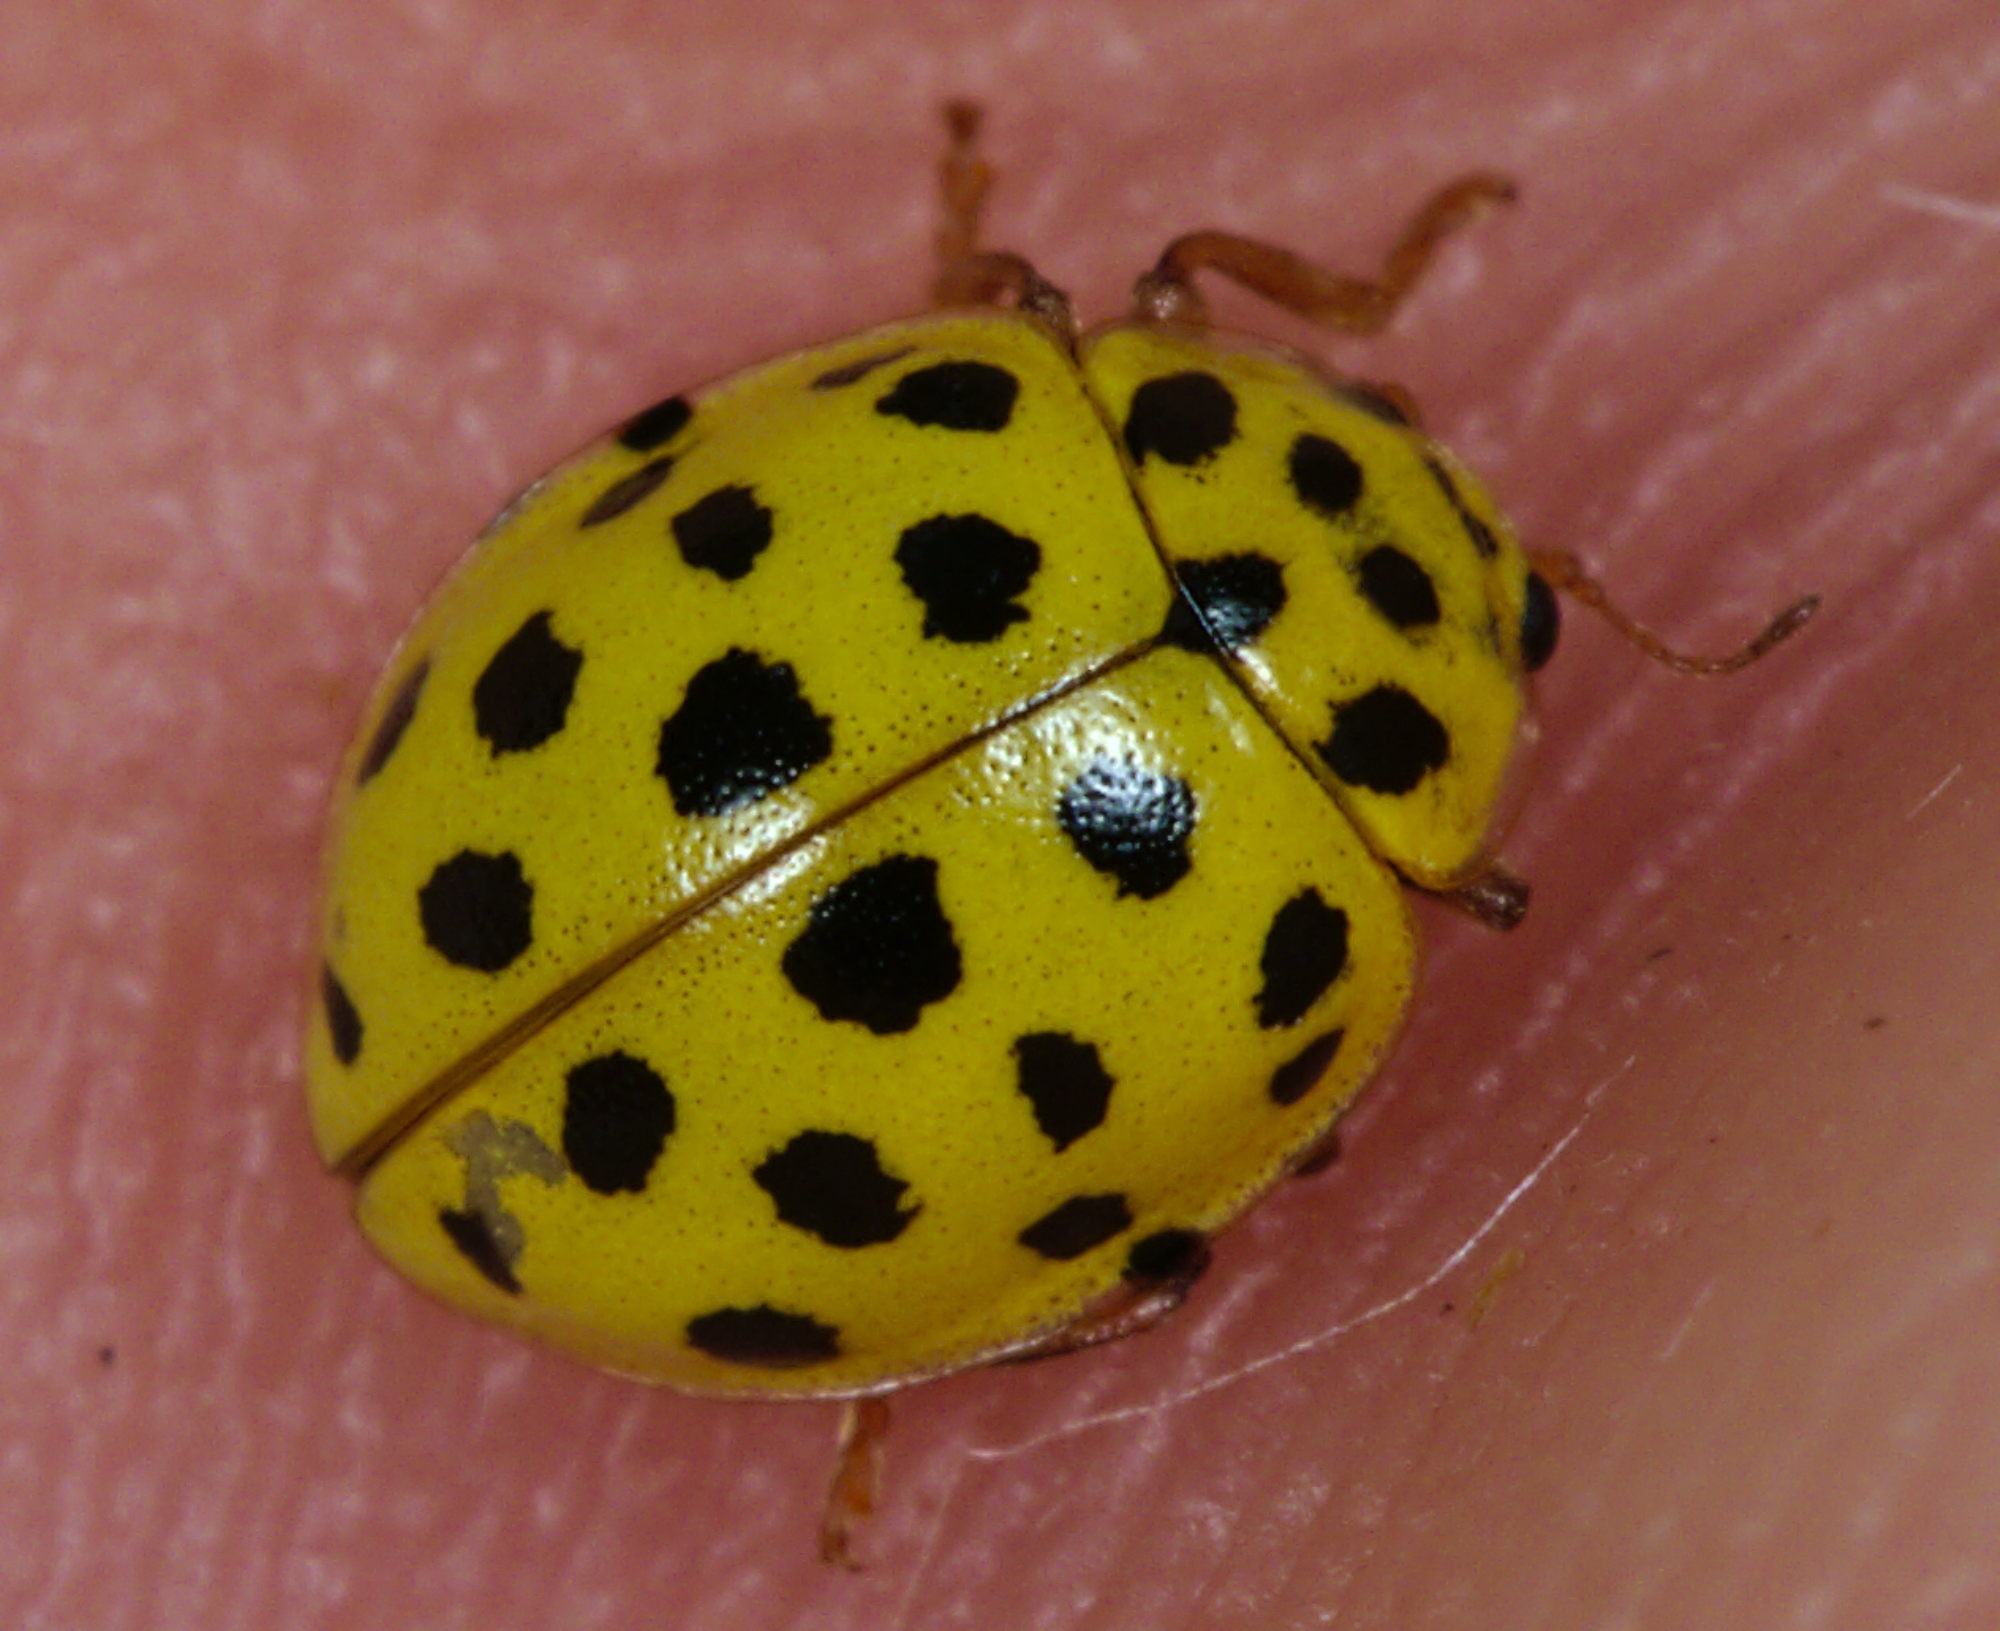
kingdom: Animalia
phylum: Arthropoda
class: Insecta
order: Coleoptera
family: Coccinellidae
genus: Psyllobora
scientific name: Psyllobora vigintiduopunctata
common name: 22-spot ladybird
